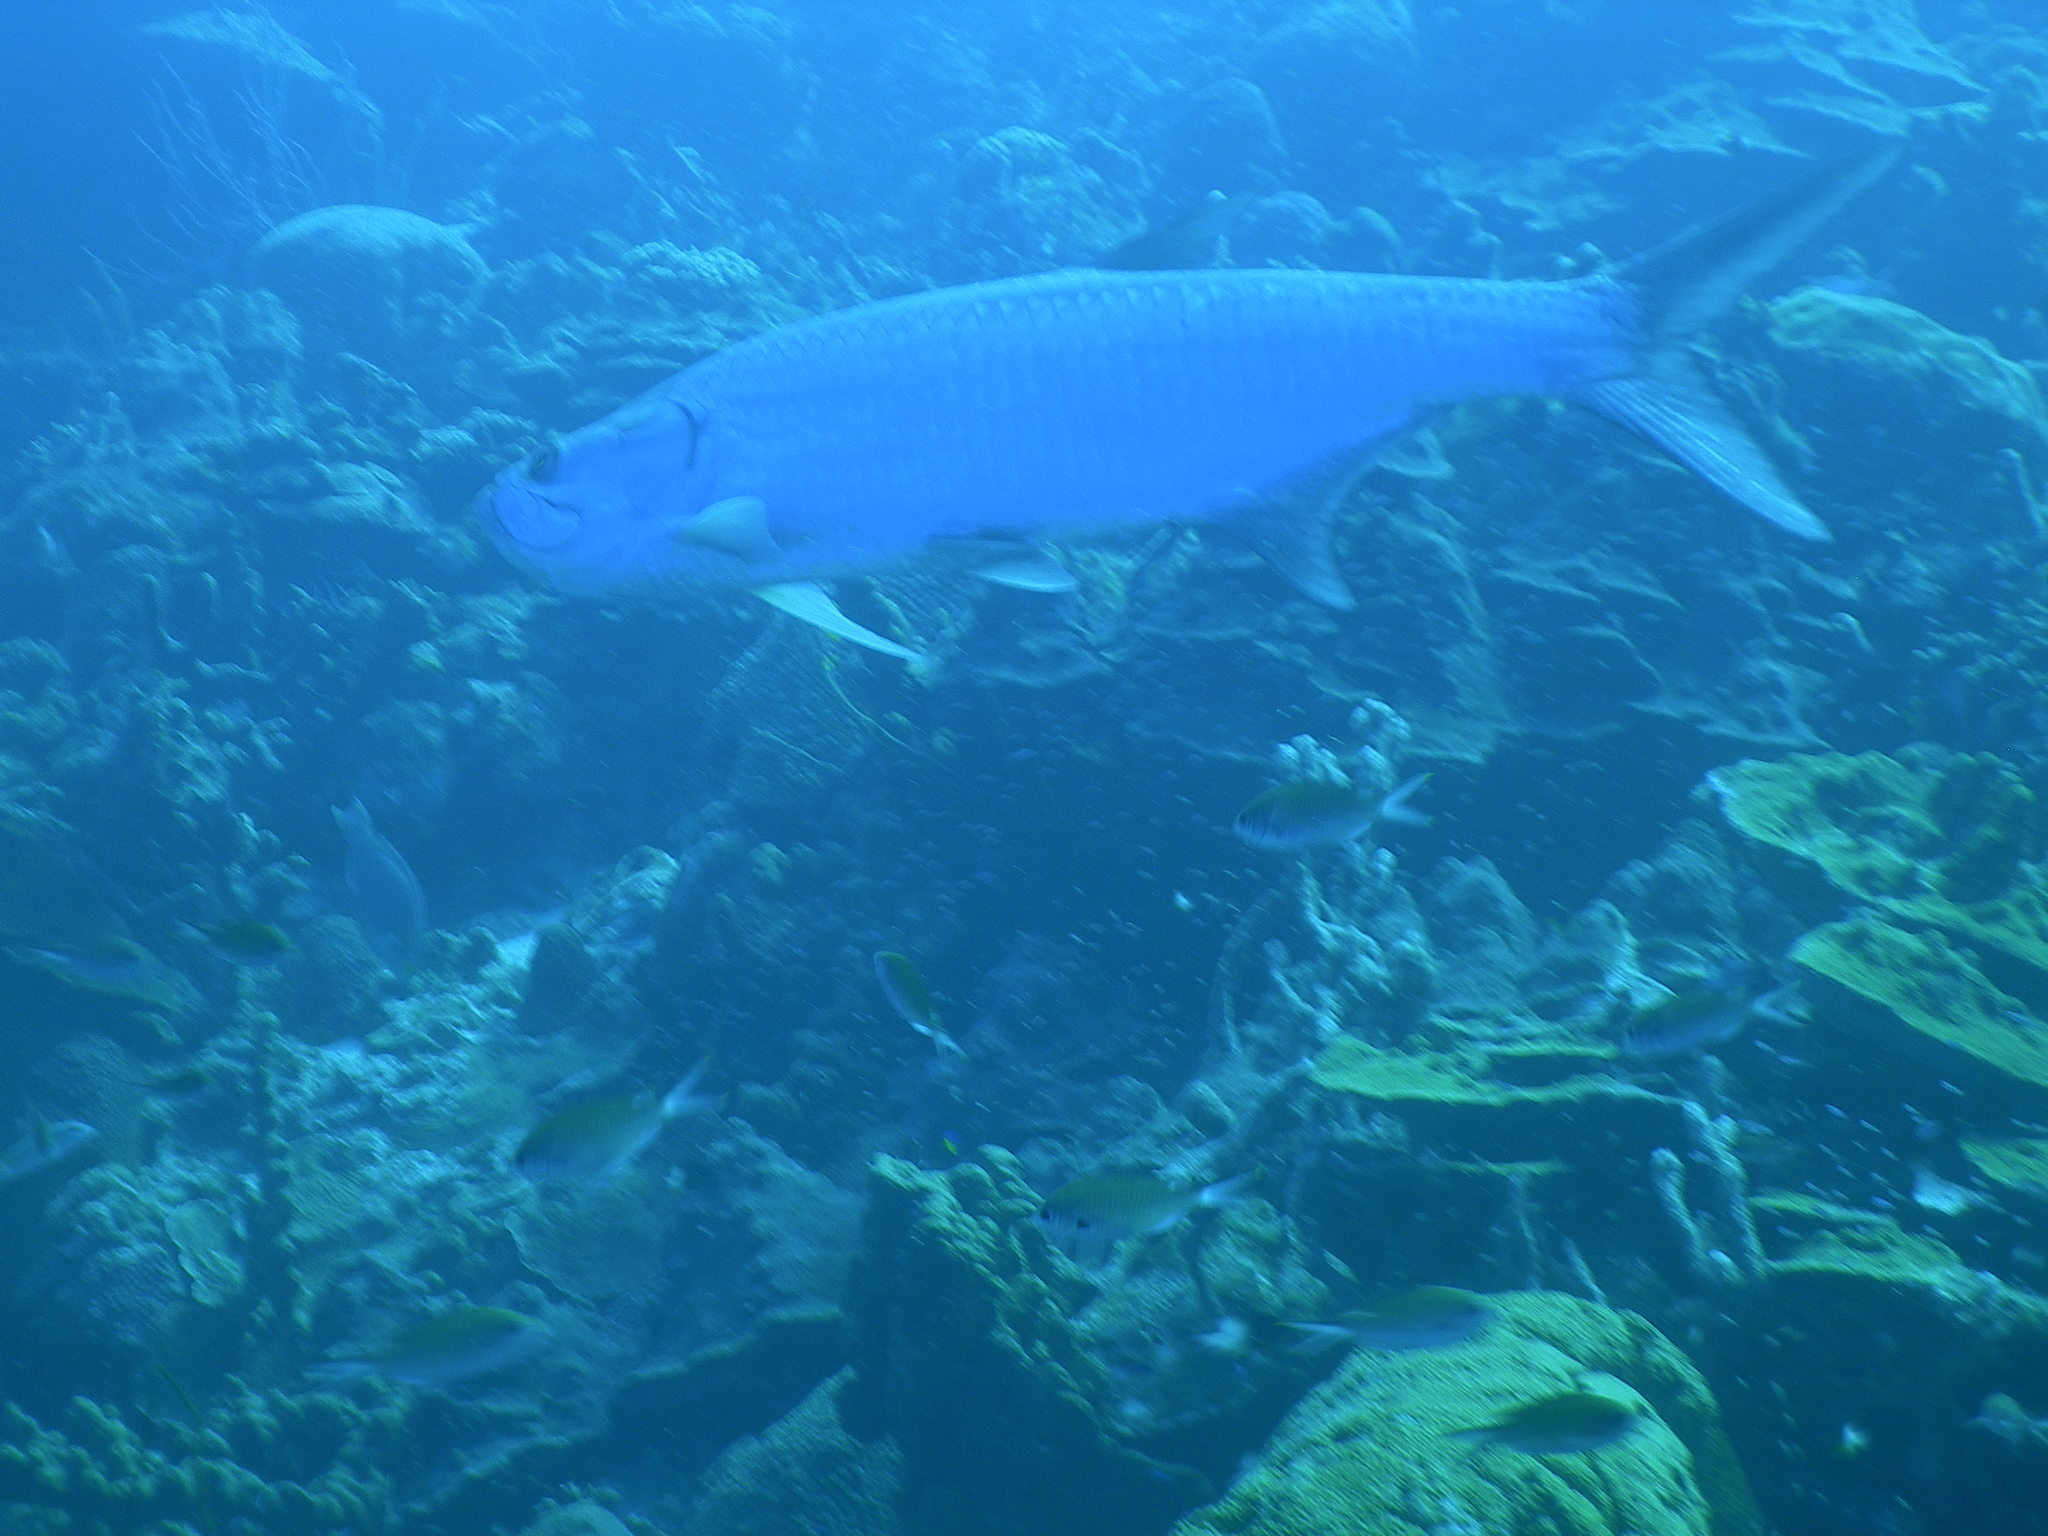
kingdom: Animalia
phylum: Chordata
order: Elopiformes
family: Megalopidae
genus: Megalops
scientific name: Megalops atlanticus
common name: Tarpon
